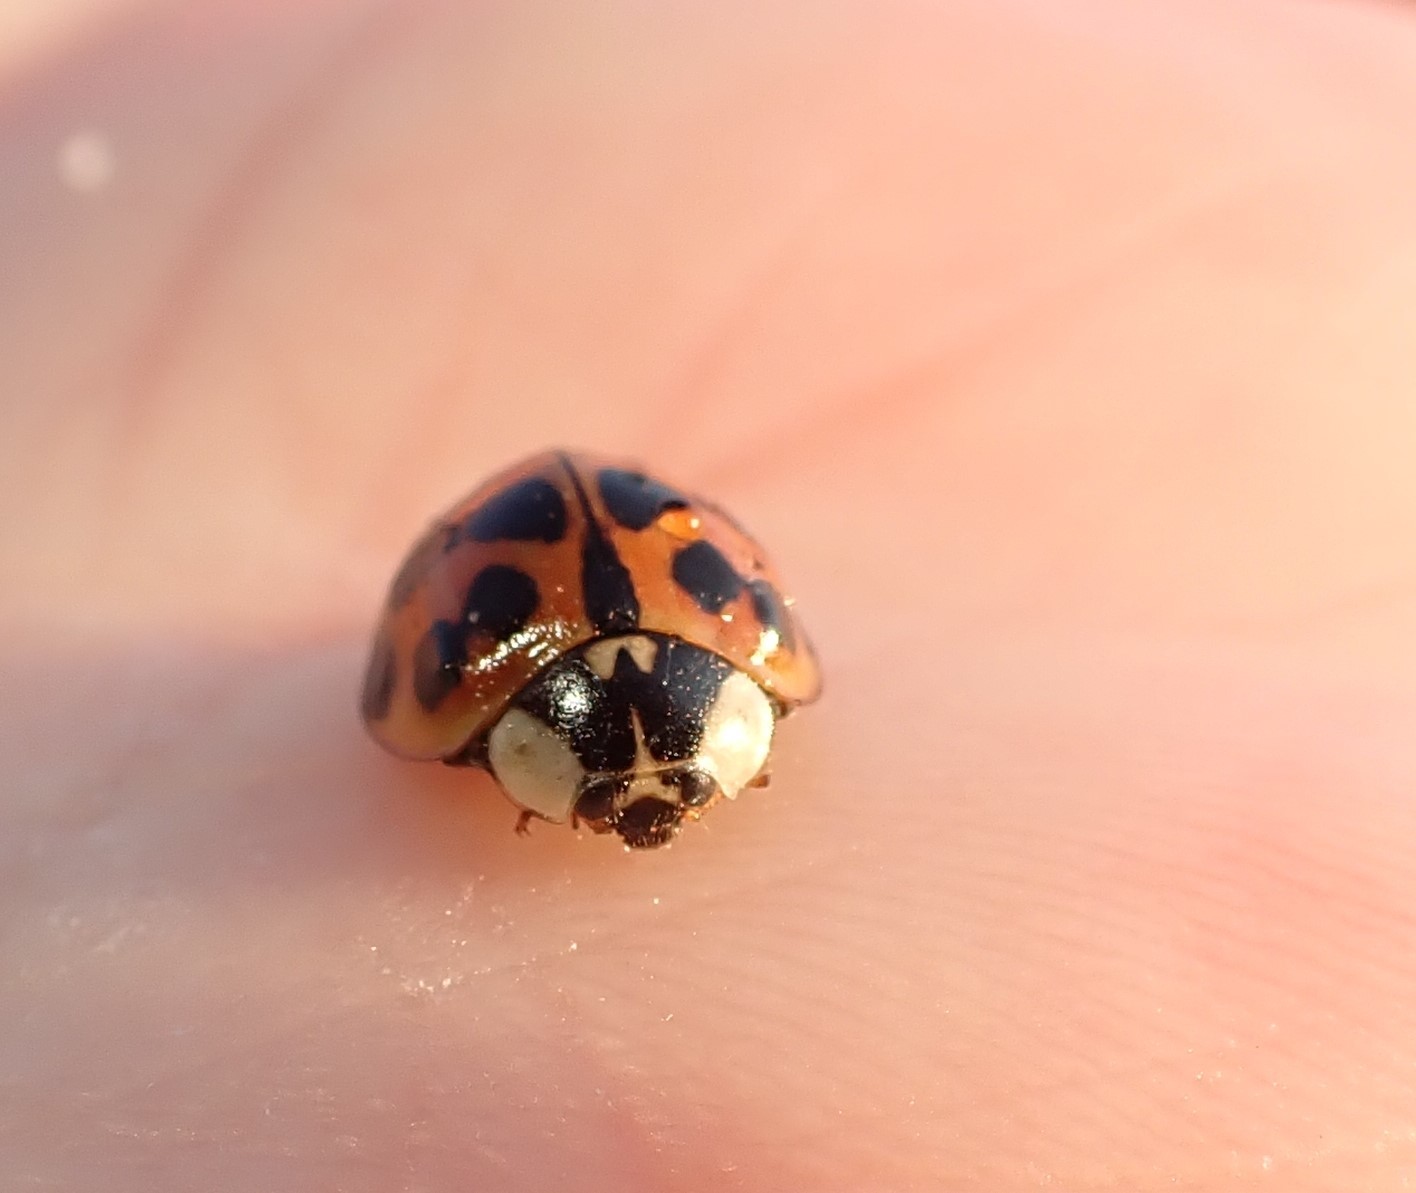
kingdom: Animalia
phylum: Arthropoda
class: Insecta
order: Coleoptera
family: Coccinellidae
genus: Harmonia
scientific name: Harmonia axyridis
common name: Harlequin ladybird
